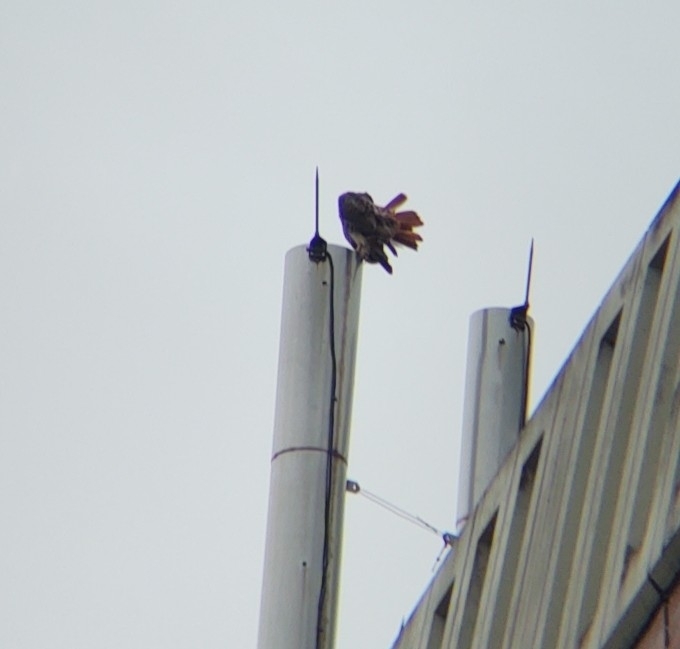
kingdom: Animalia
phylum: Chordata
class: Aves
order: Accipitriformes
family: Accipitridae
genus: Buteo
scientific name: Buteo jamaicensis
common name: Red-tailed hawk
